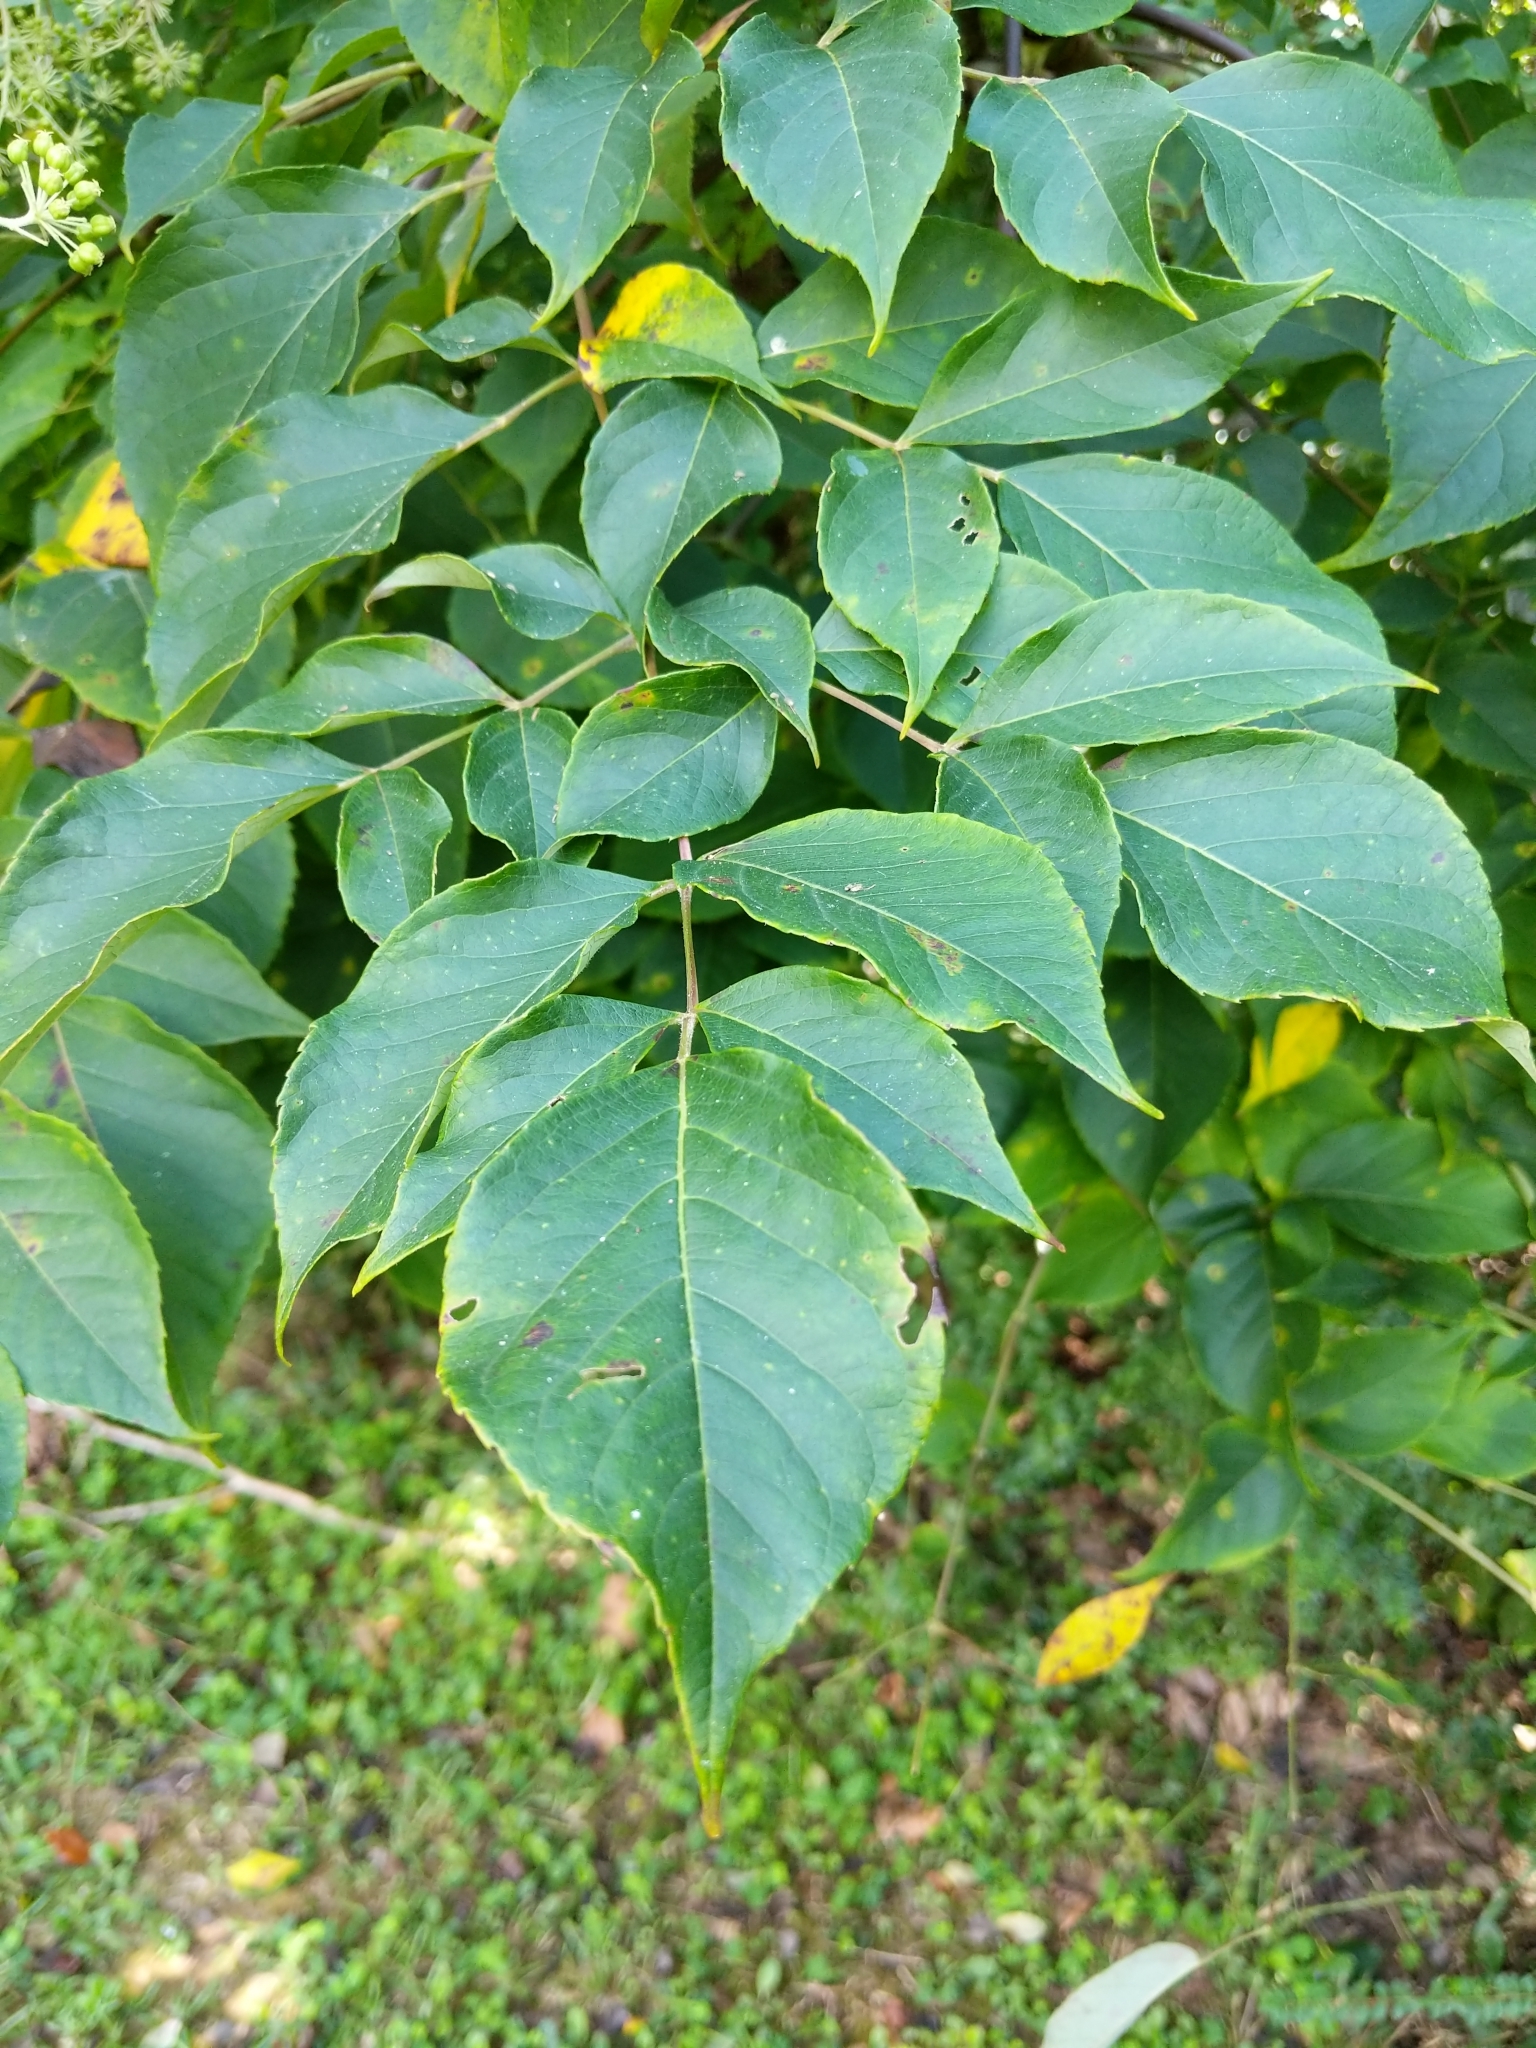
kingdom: Plantae
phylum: Tracheophyta
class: Magnoliopsida
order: Apiales
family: Araliaceae
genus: Aralia
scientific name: Aralia spinosa
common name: Hercules'-club
